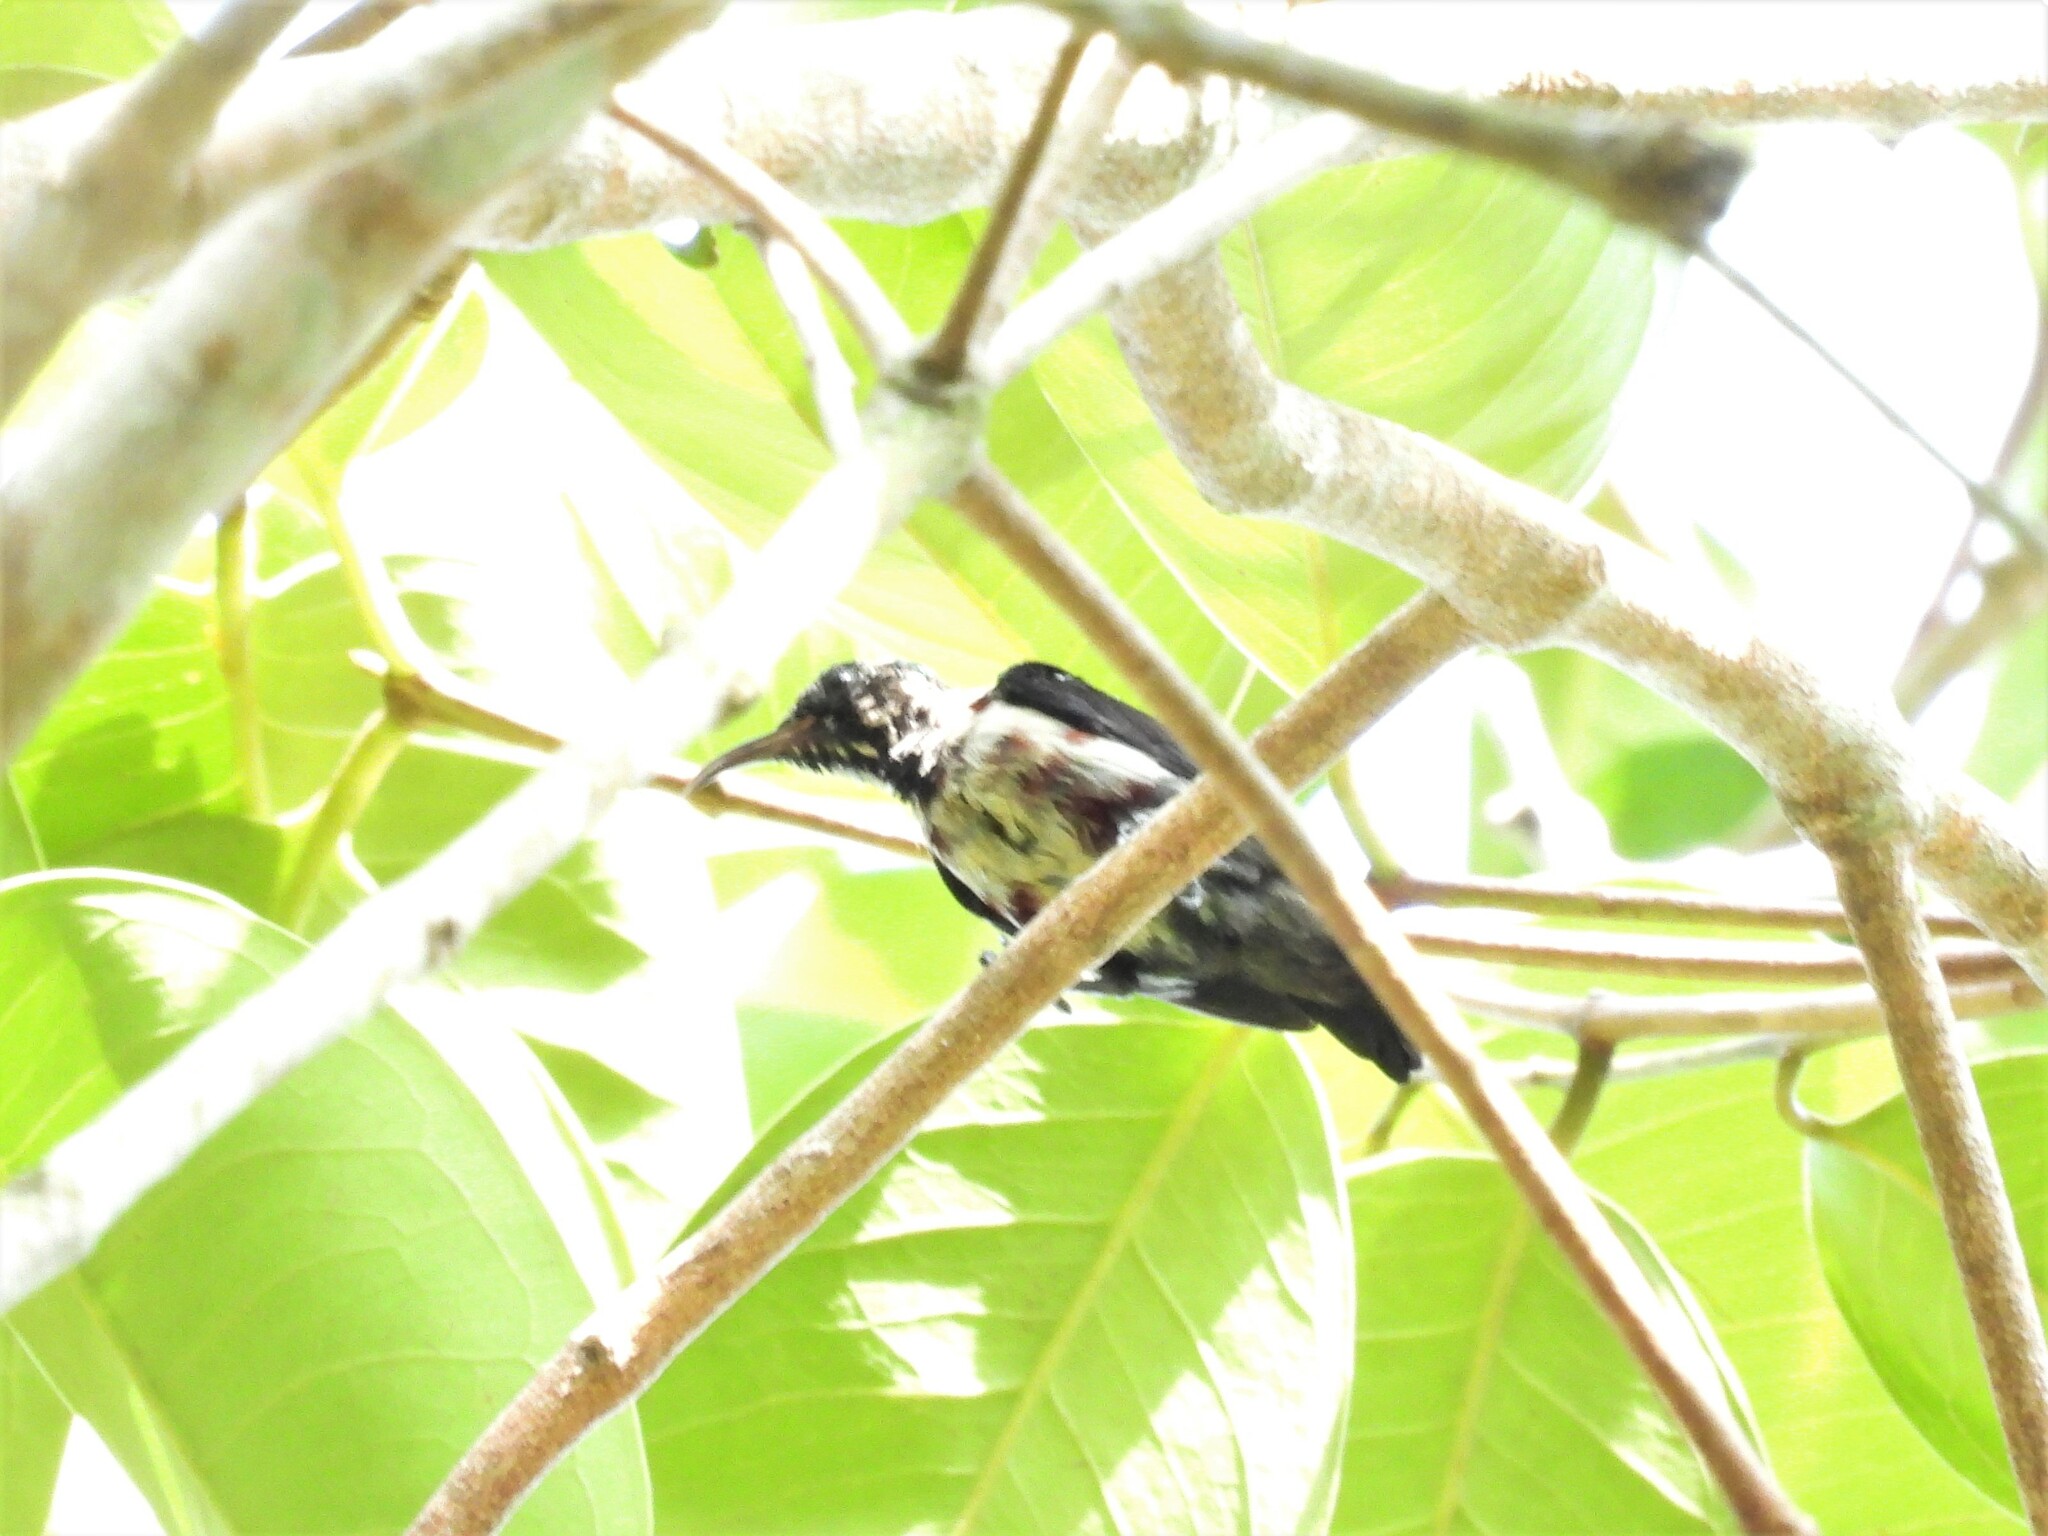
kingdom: Animalia
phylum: Chordata
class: Aves
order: Passeriformes
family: Nectariniidae
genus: Leptocoma
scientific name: Leptocoma brasiliana
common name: Van hasselt's sunbird
